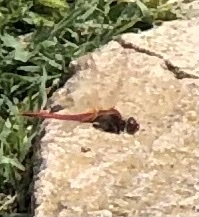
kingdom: Animalia
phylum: Arthropoda
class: Insecta
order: Odonata
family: Libellulidae
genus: Sympetrum
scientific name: Sympetrum fonscolombii
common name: Red-veined darter
